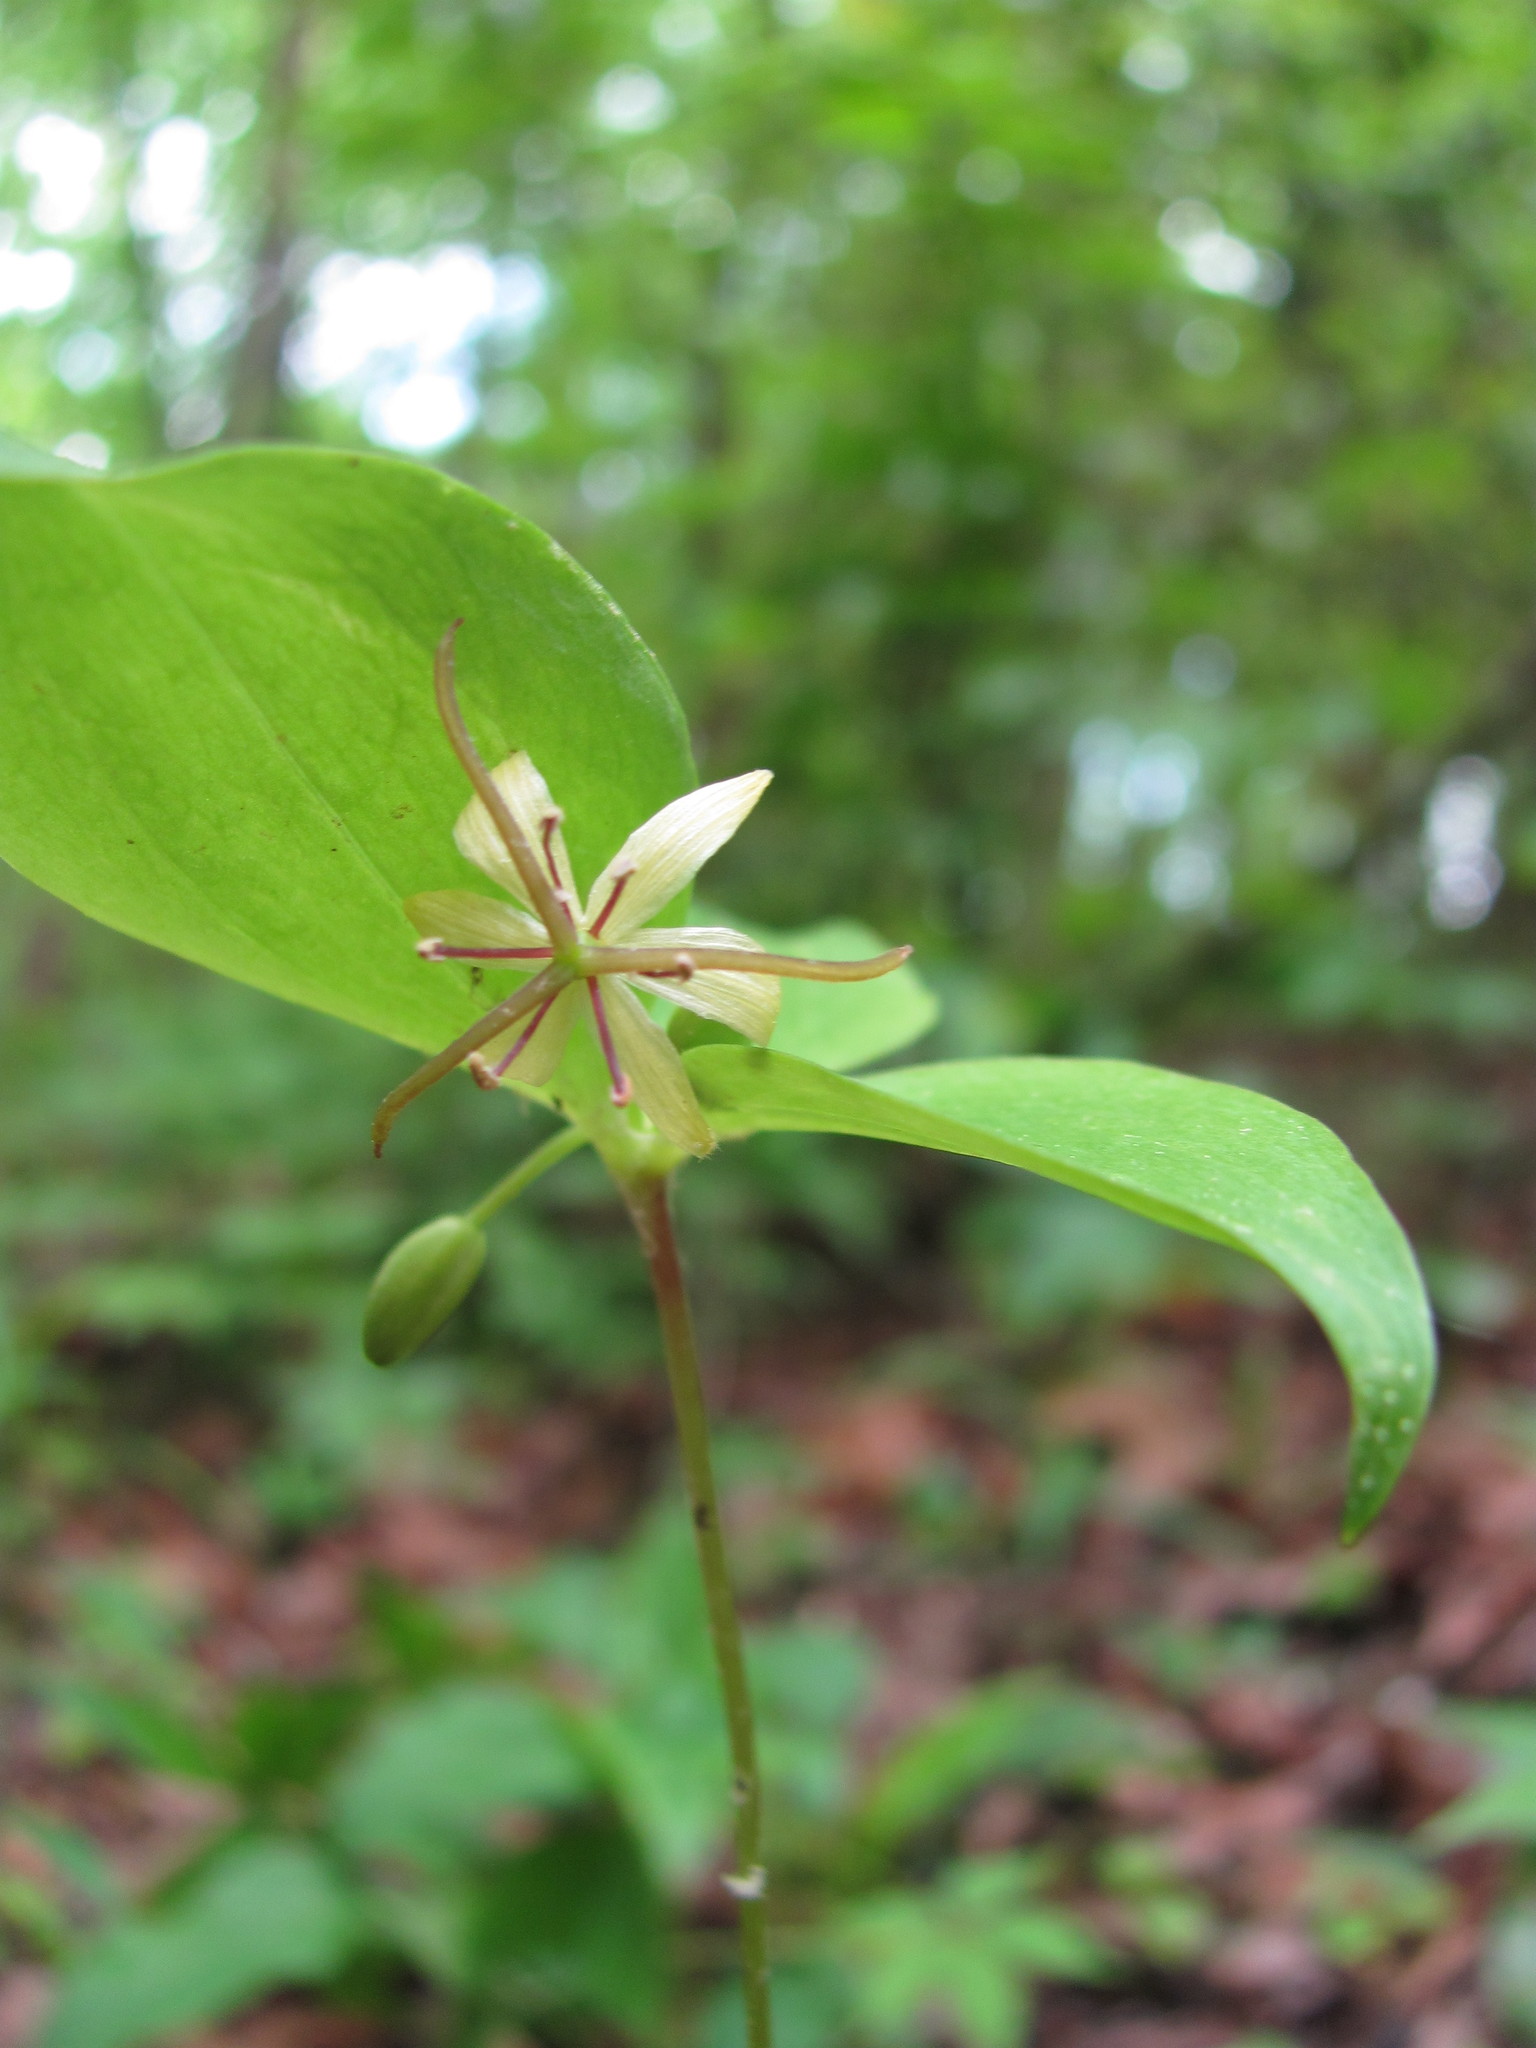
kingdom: Plantae
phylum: Tracheophyta
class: Liliopsida
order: Liliales
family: Liliaceae
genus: Medeola
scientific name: Medeola virginiana
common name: Indian cucumber-root
